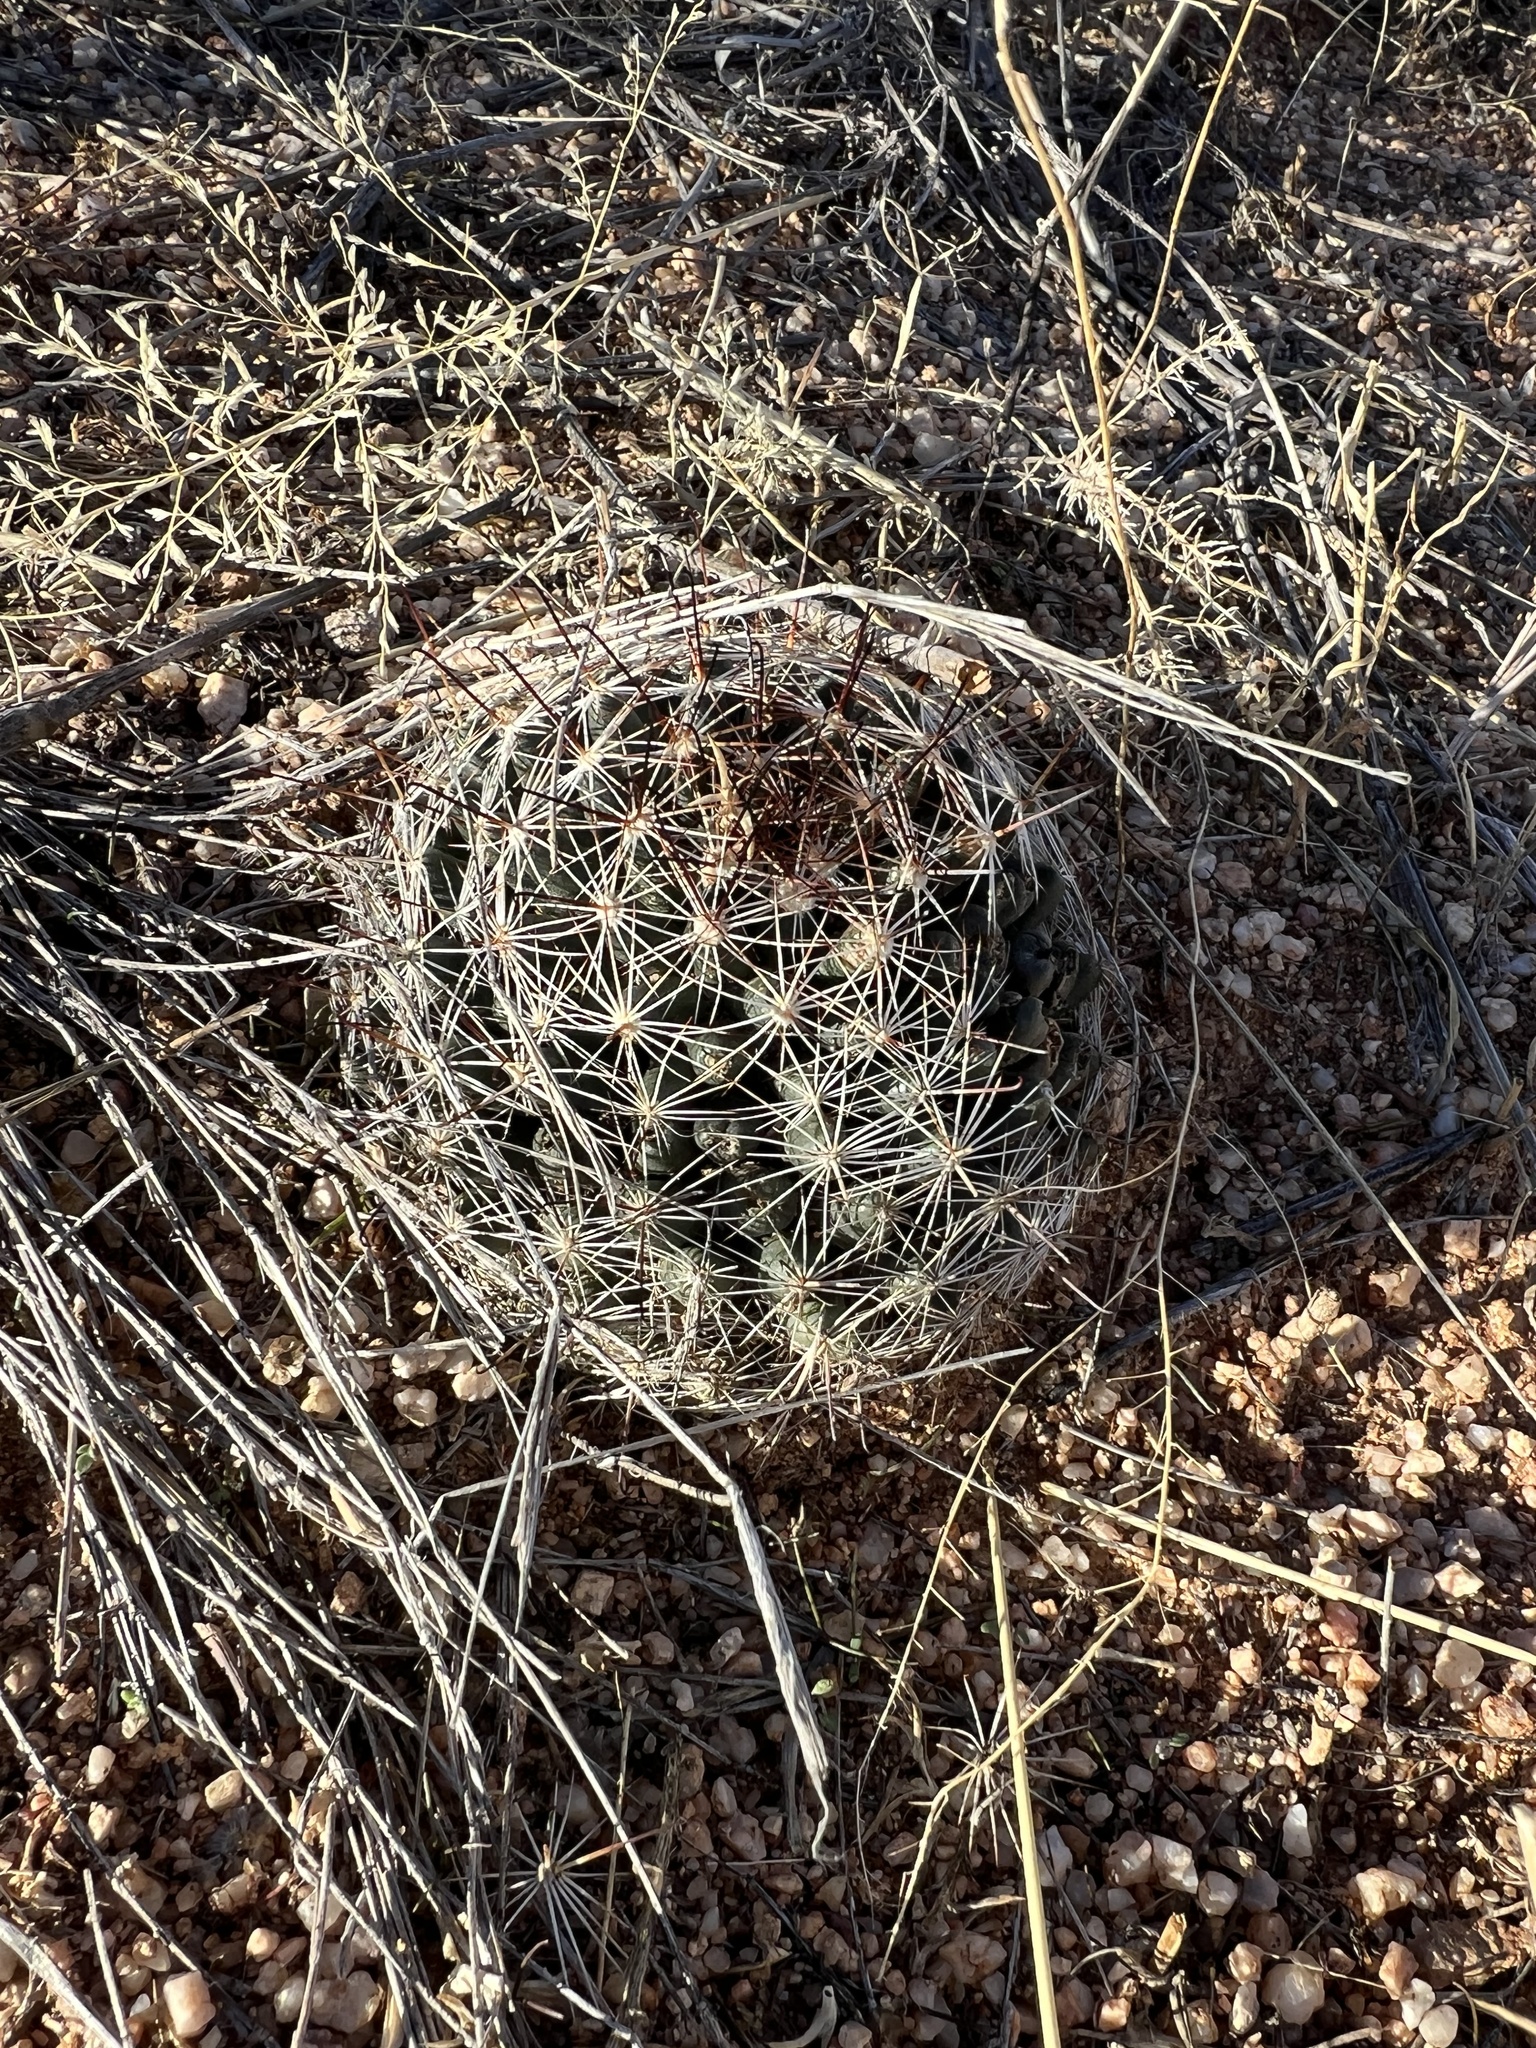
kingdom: Plantae
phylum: Tracheophyta
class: Magnoliopsida
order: Caryophyllales
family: Cactaceae
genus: Cochemiea
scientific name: Cochemiea wrightii
